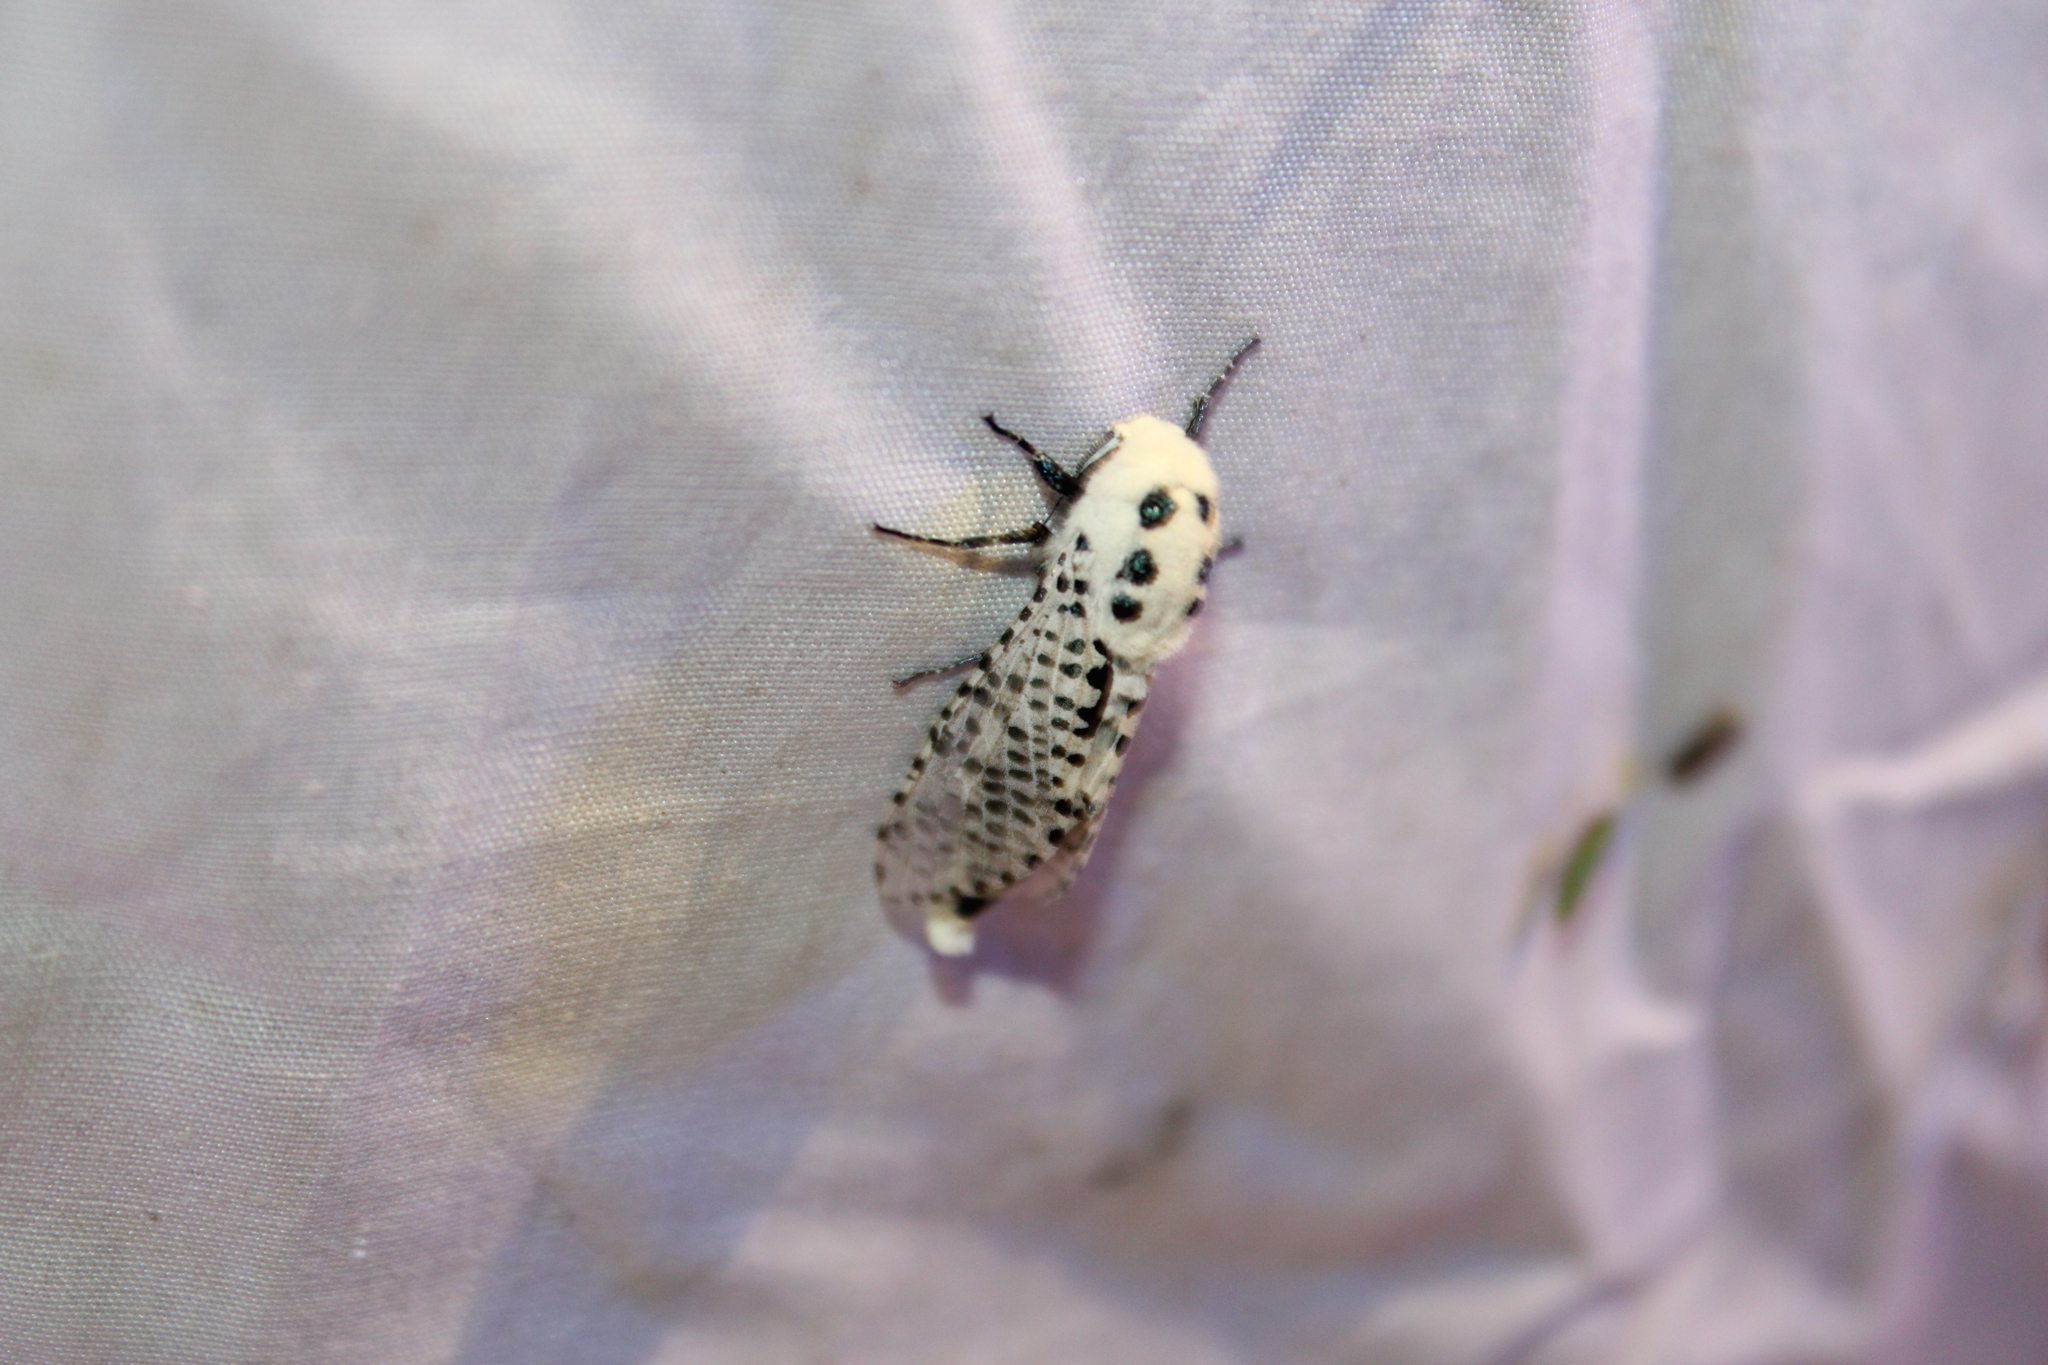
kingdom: Animalia
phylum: Arthropoda
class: Insecta
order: Lepidoptera
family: Cossidae
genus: Zeuzera
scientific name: Zeuzera pyrina
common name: Leopard moth
